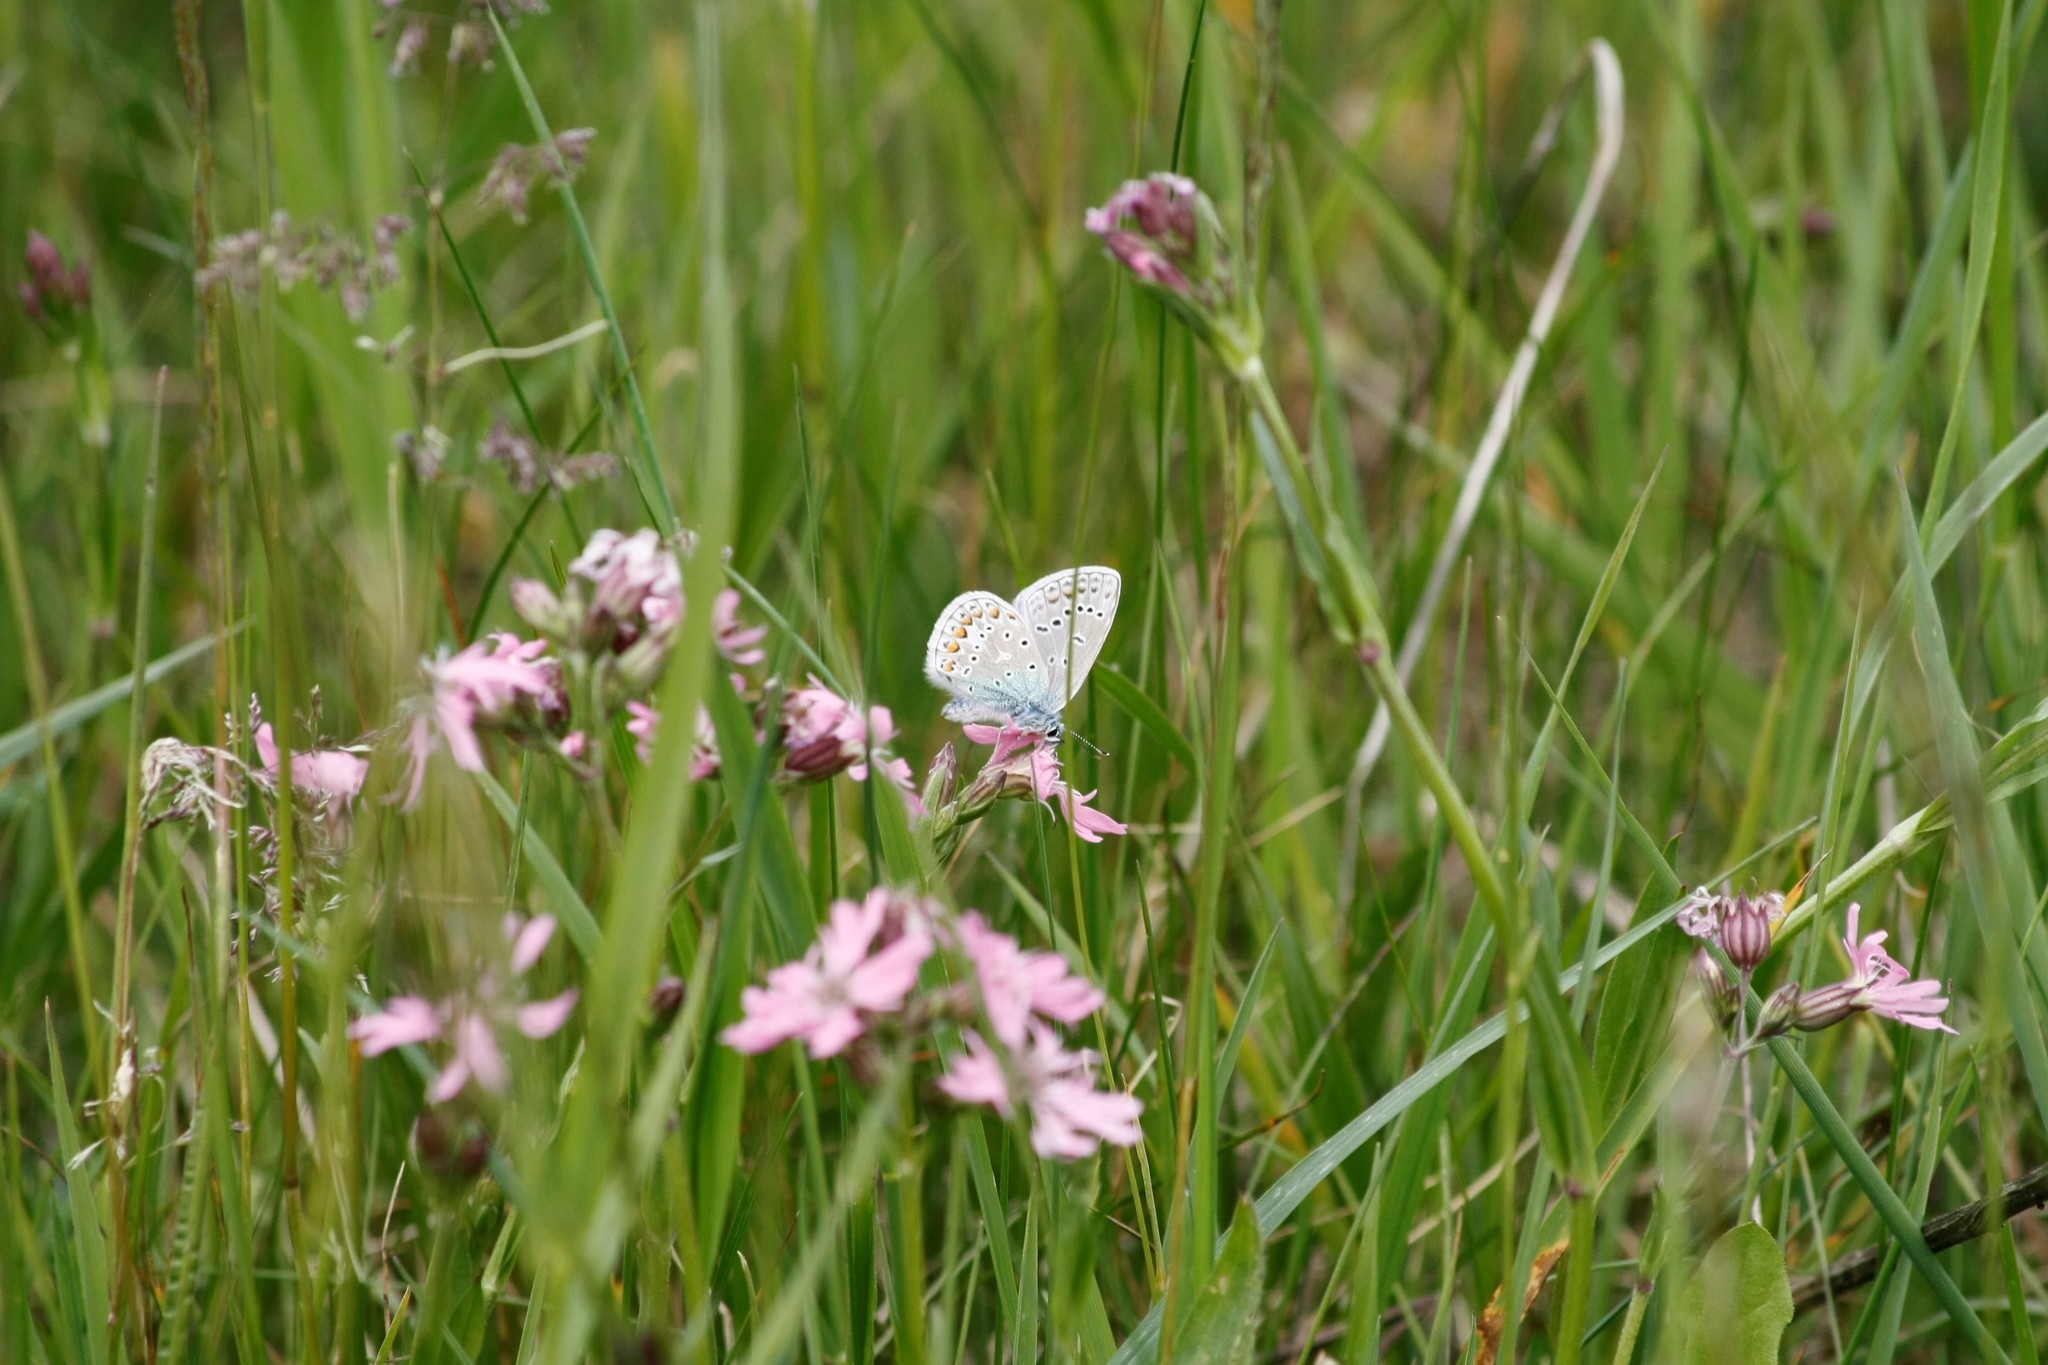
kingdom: Animalia
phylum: Arthropoda
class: Insecta
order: Lepidoptera
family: Lycaenidae
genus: Polyommatus
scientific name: Polyommatus icarus
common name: Common blue
